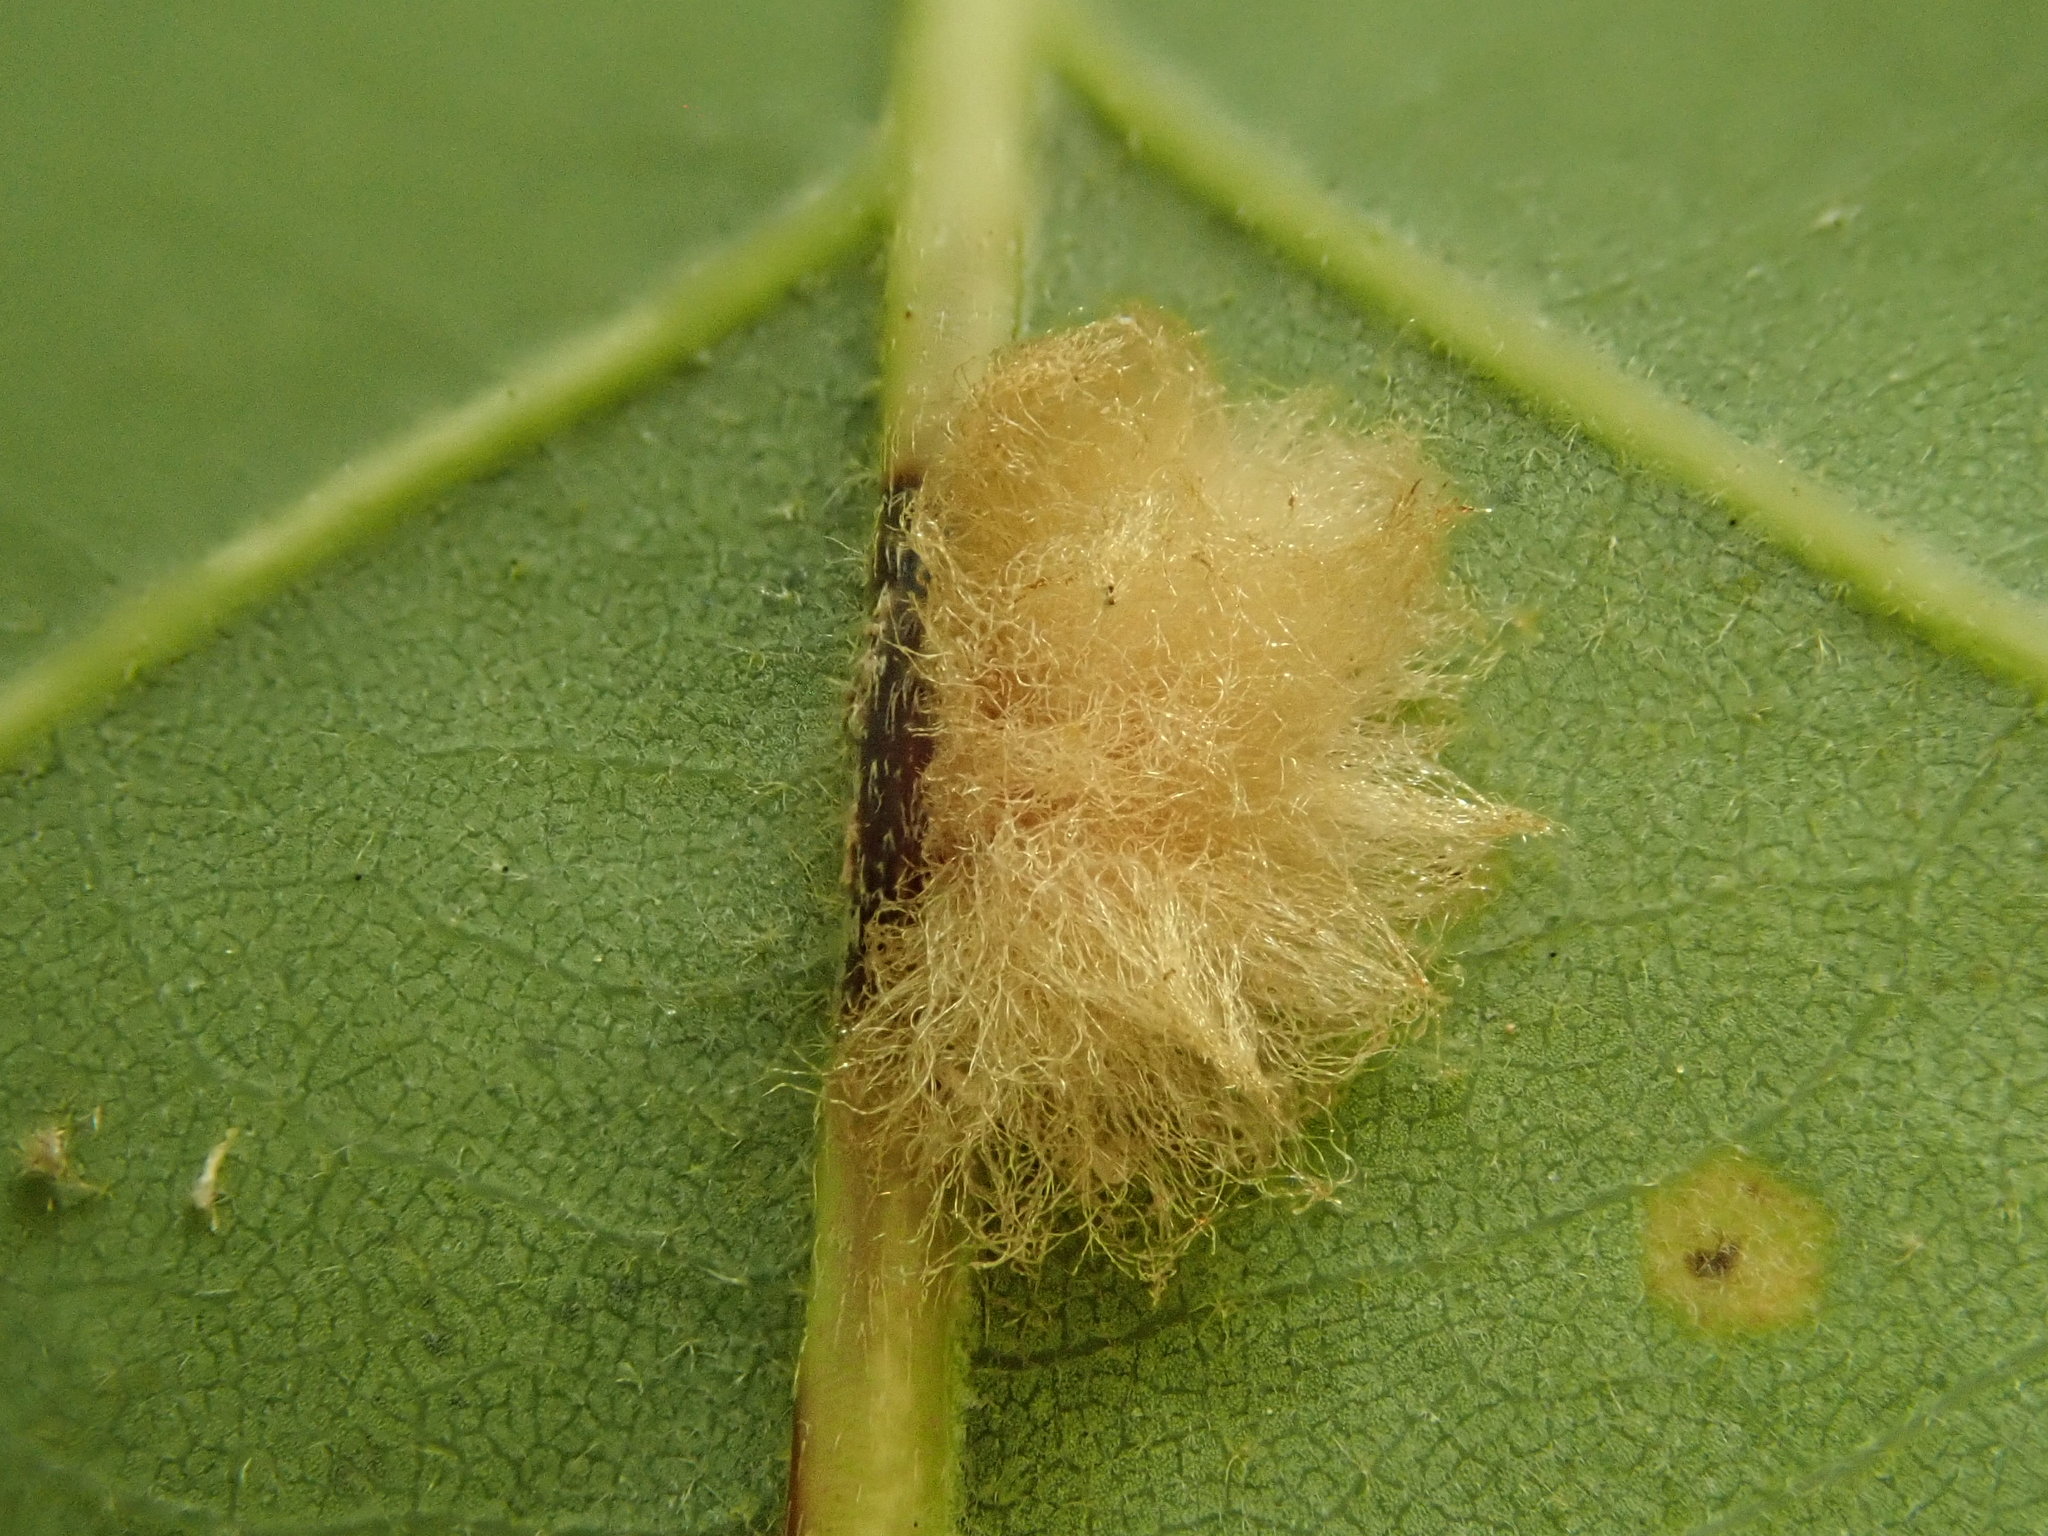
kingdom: Animalia
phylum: Arthropoda
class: Insecta
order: Hymenoptera
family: Cynipidae
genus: Andricus
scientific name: Andricus Druon ignotum
